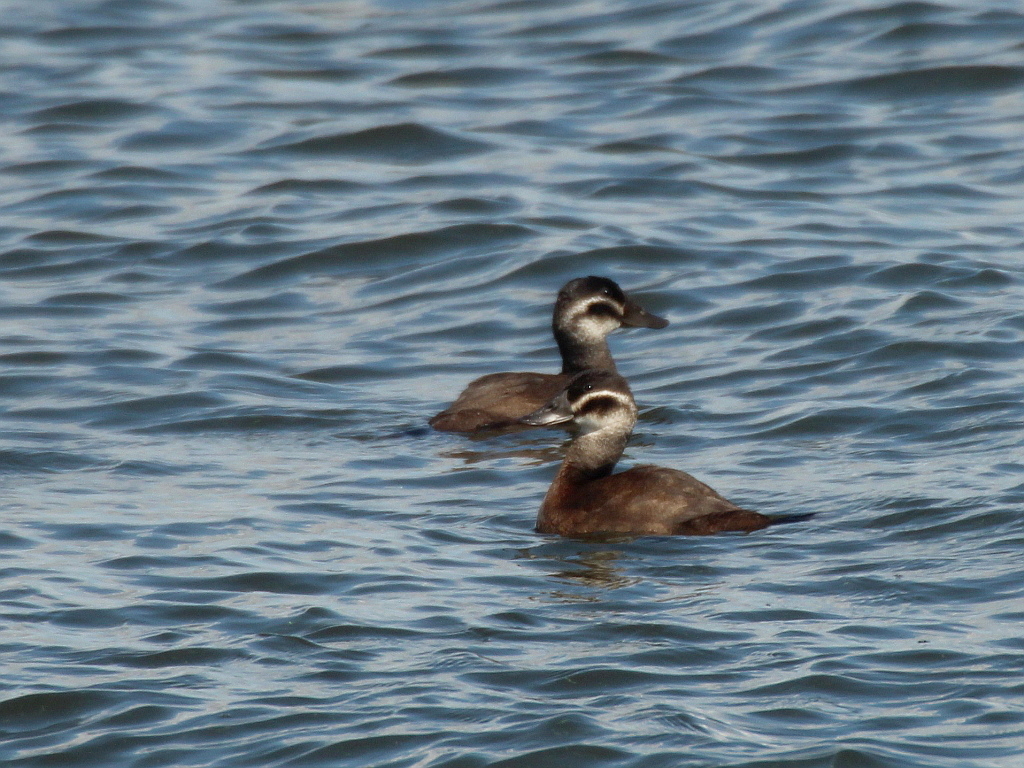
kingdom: Animalia
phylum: Chordata
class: Aves
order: Anseriformes
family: Anatidae
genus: Oxyura
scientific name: Oxyura leucocephala
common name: White-headed duck
